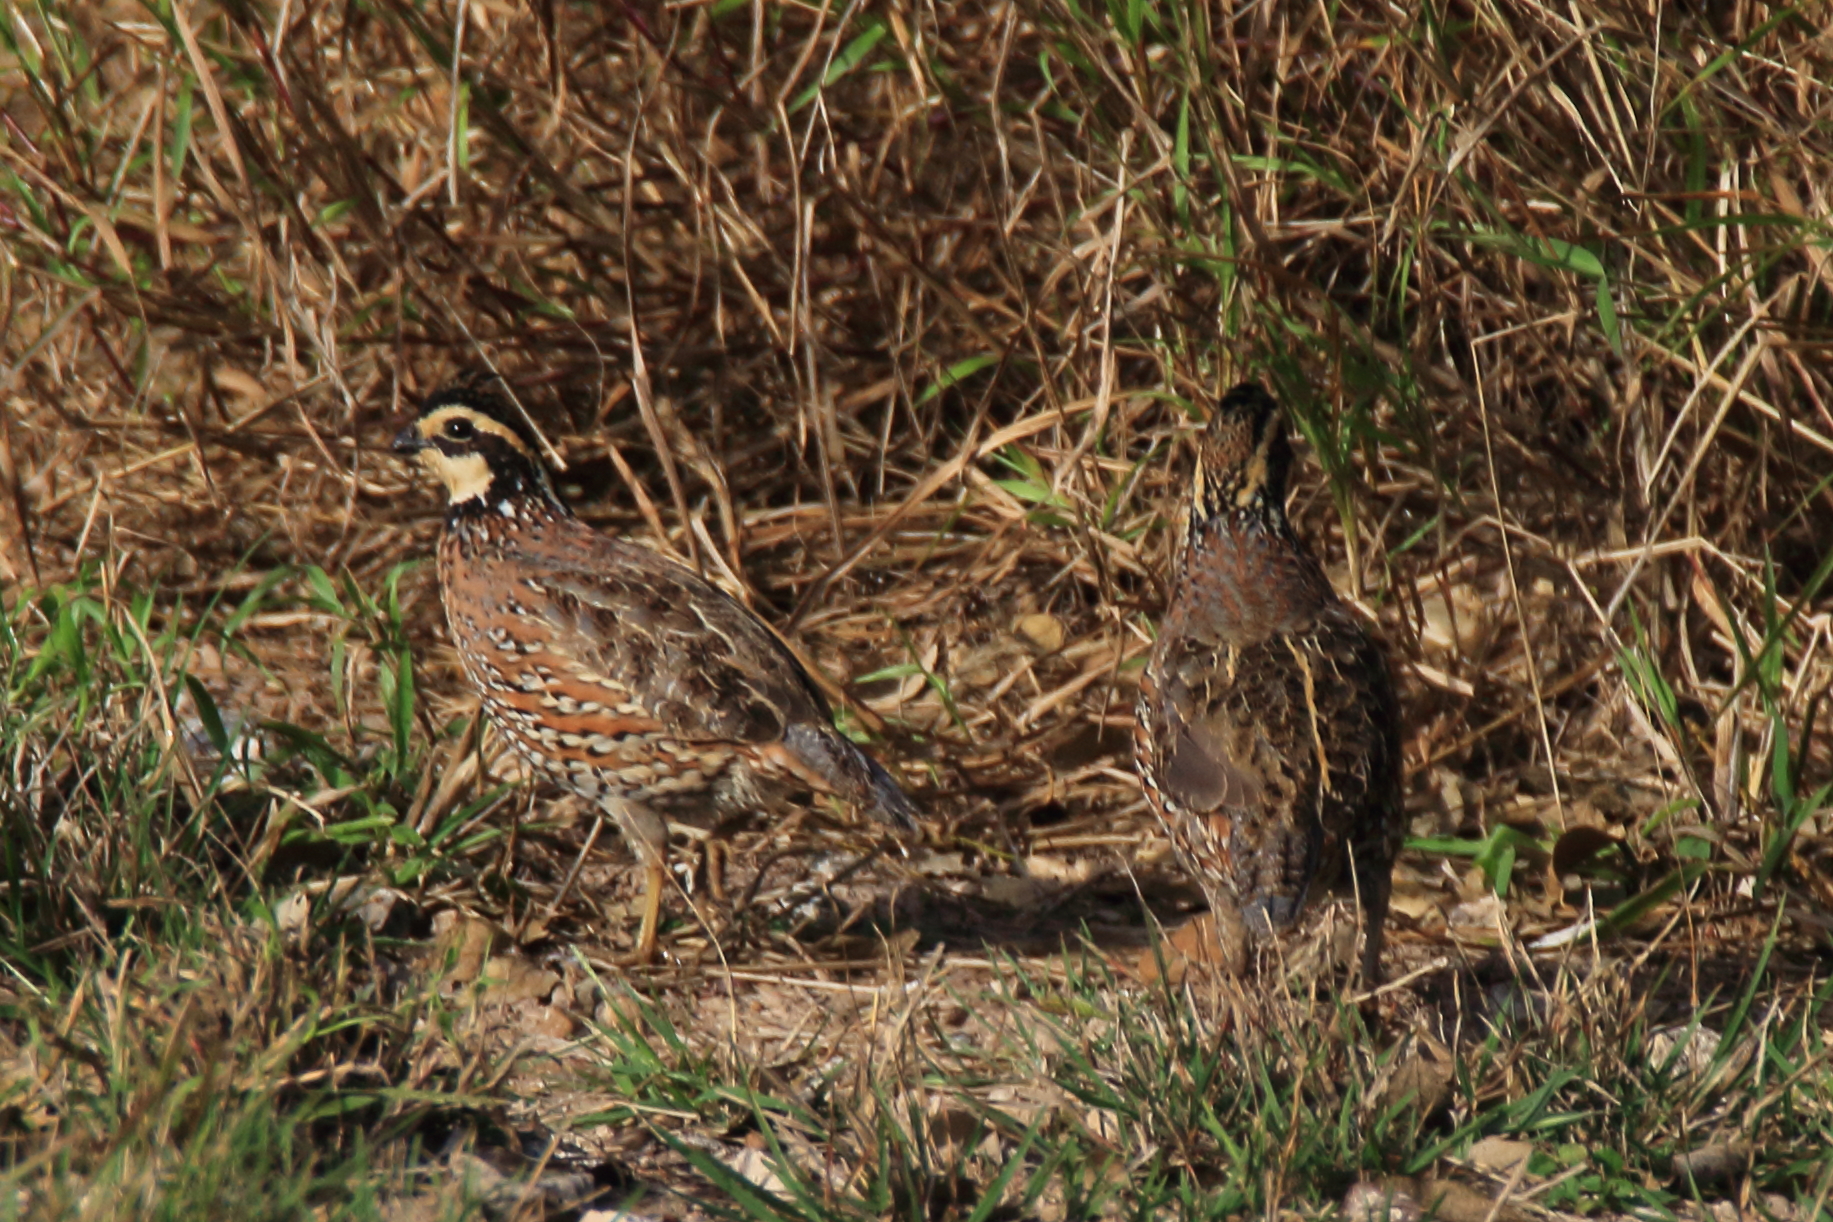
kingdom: Animalia
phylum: Chordata
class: Aves
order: Galliformes
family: Odontophoridae
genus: Colinus
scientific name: Colinus virginianus
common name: Northern bobwhite
